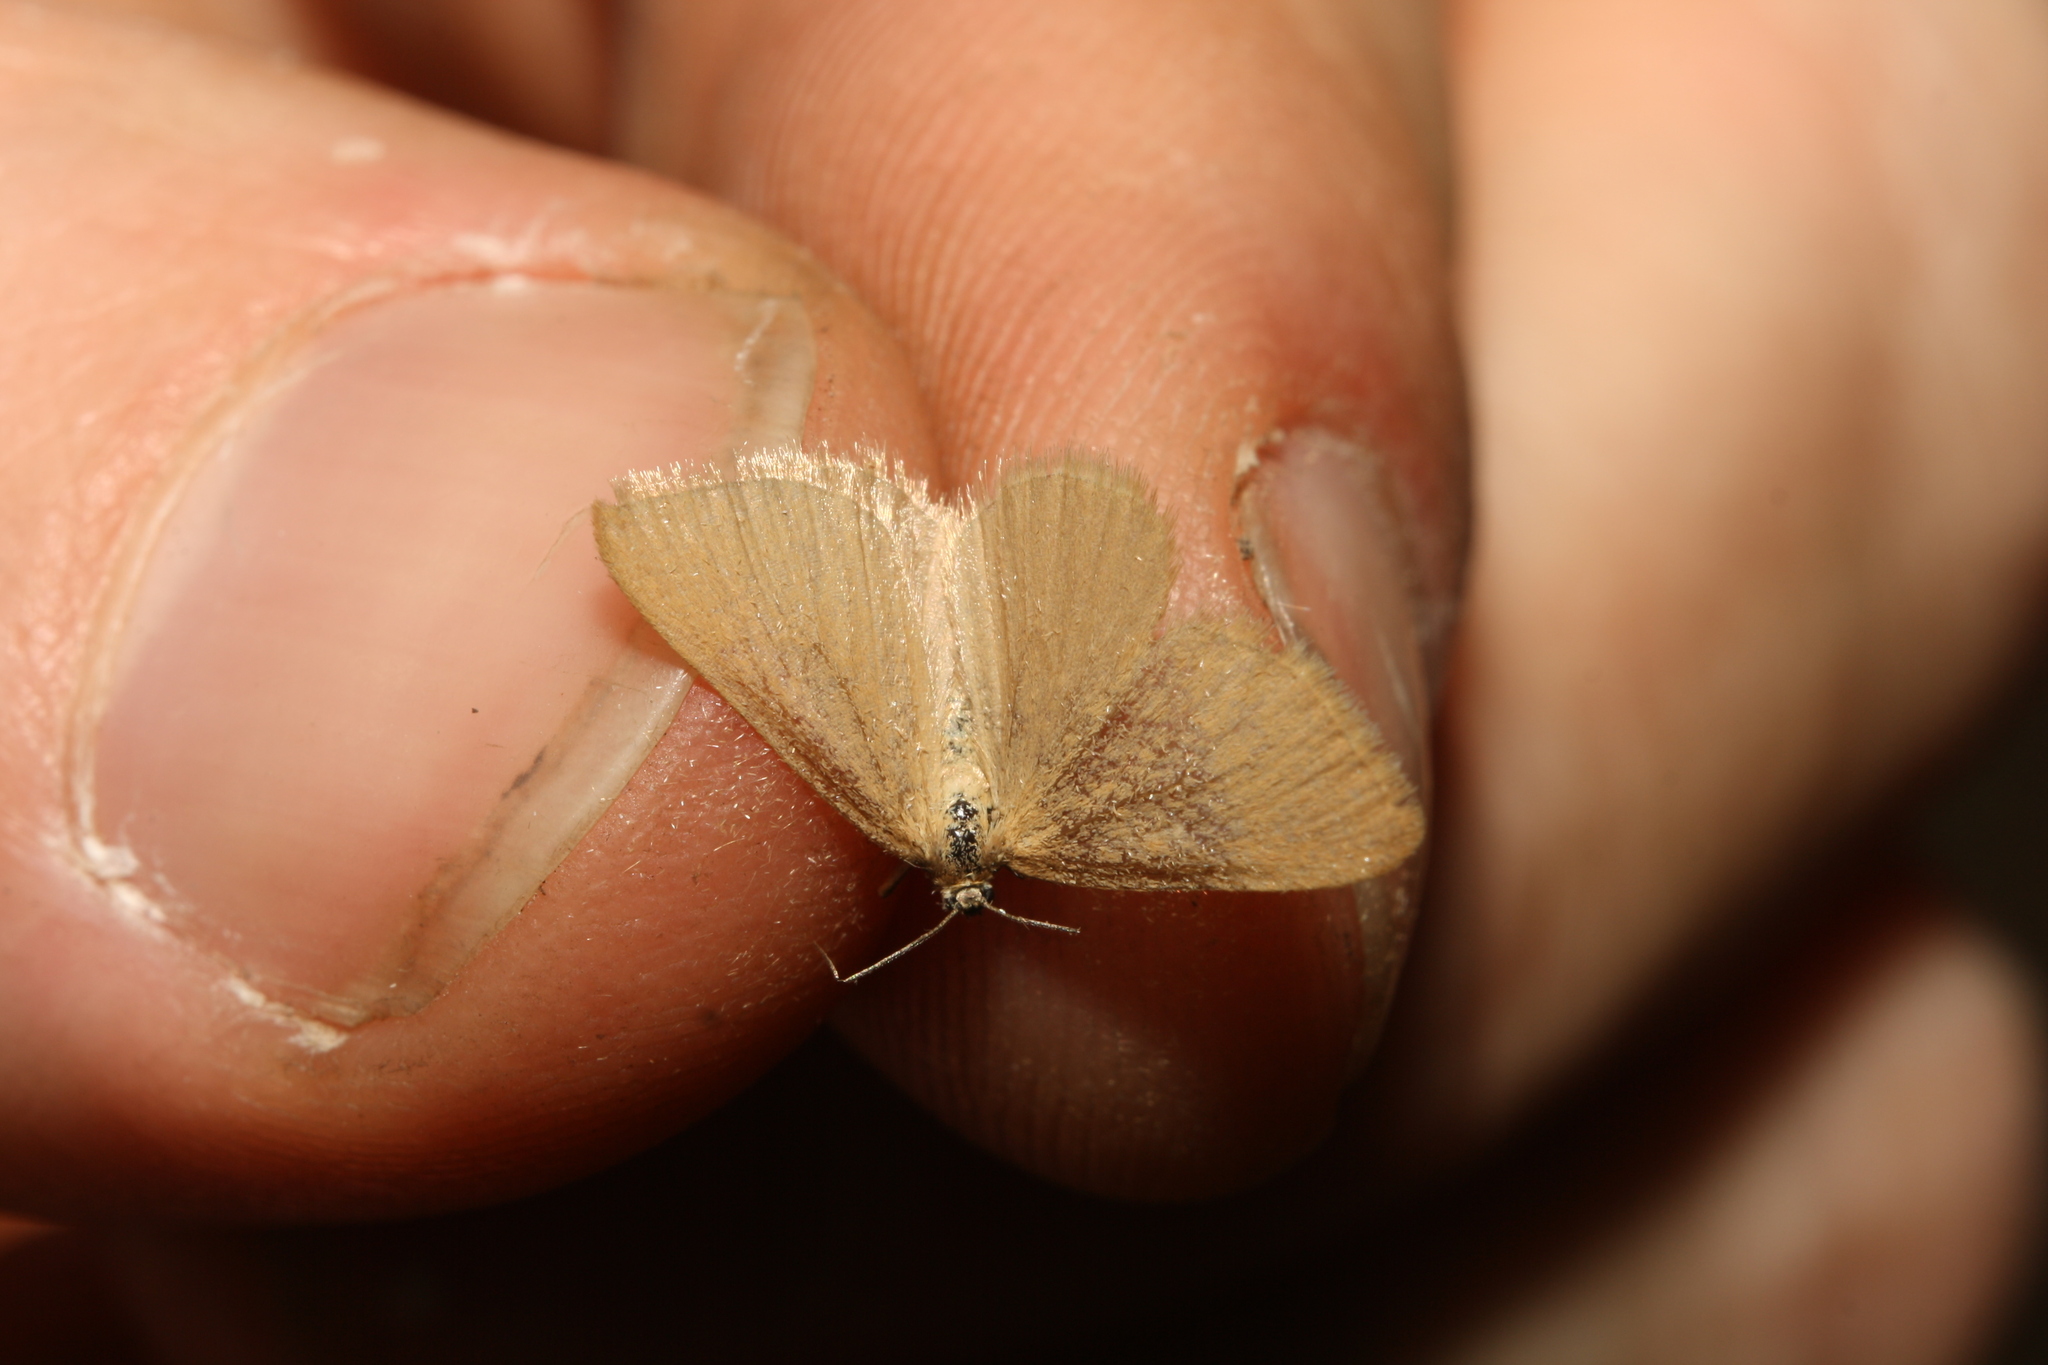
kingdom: Animalia
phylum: Arthropoda
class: Insecta
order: Lepidoptera
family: Geometridae
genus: Minoa
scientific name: Minoa murinata
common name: Drab looper
